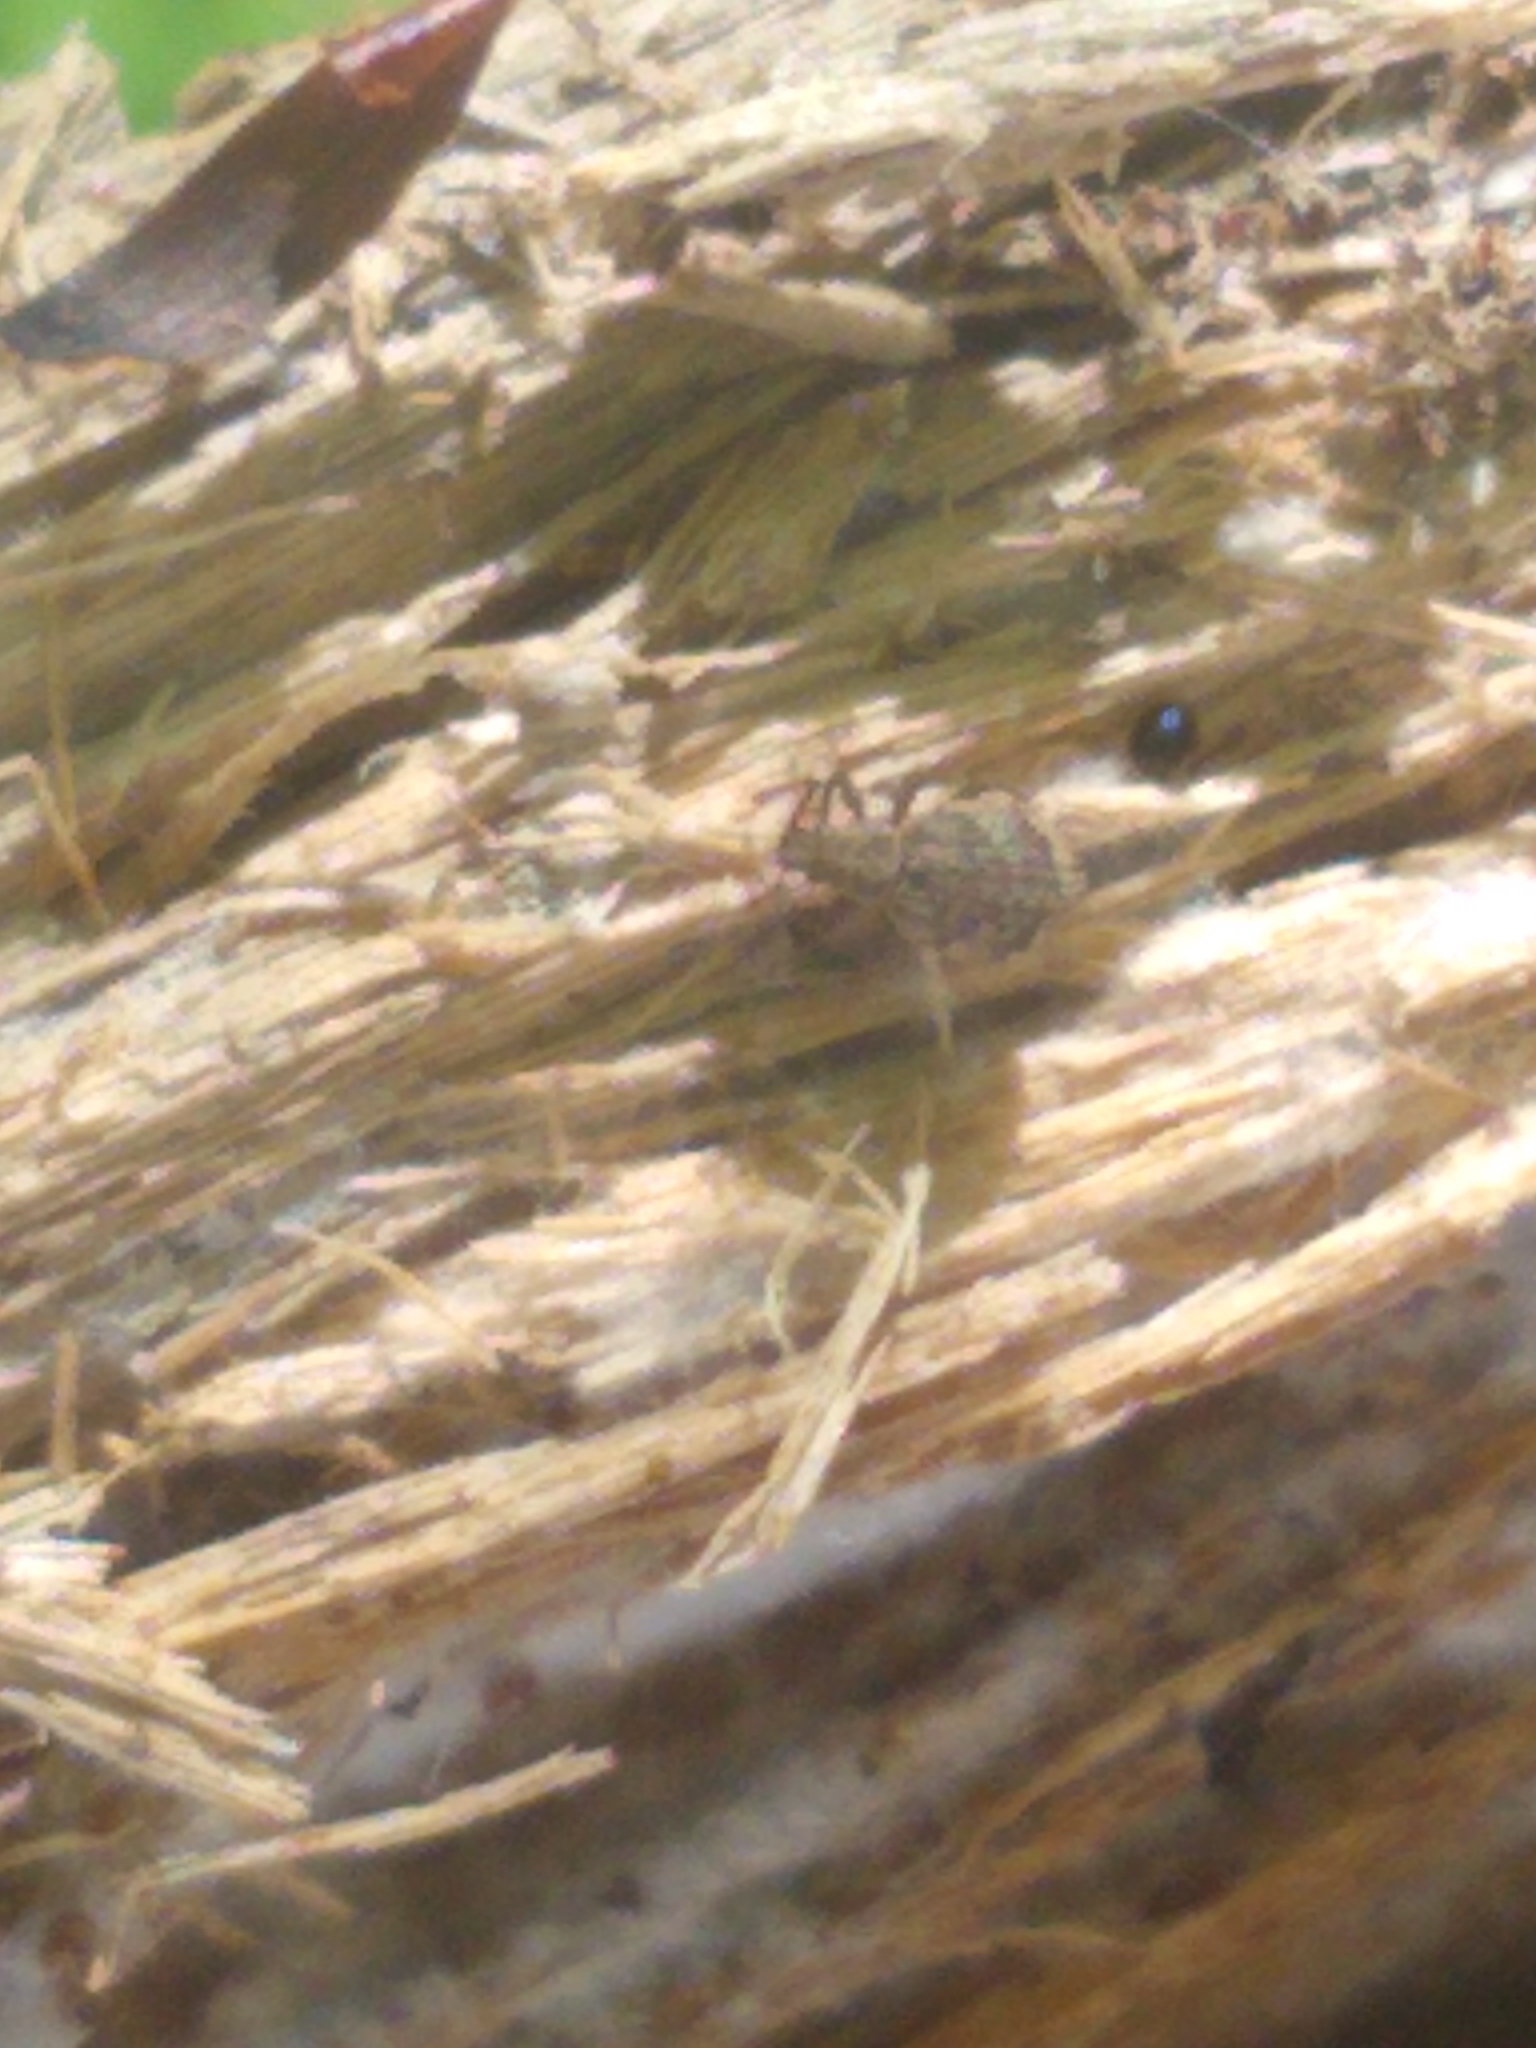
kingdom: Animalia
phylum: Arthropoda
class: Insecta
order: Coleoptera
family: Curculionidae
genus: Myosides
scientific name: Myosides seriehispidus
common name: Broadnosed weevil
